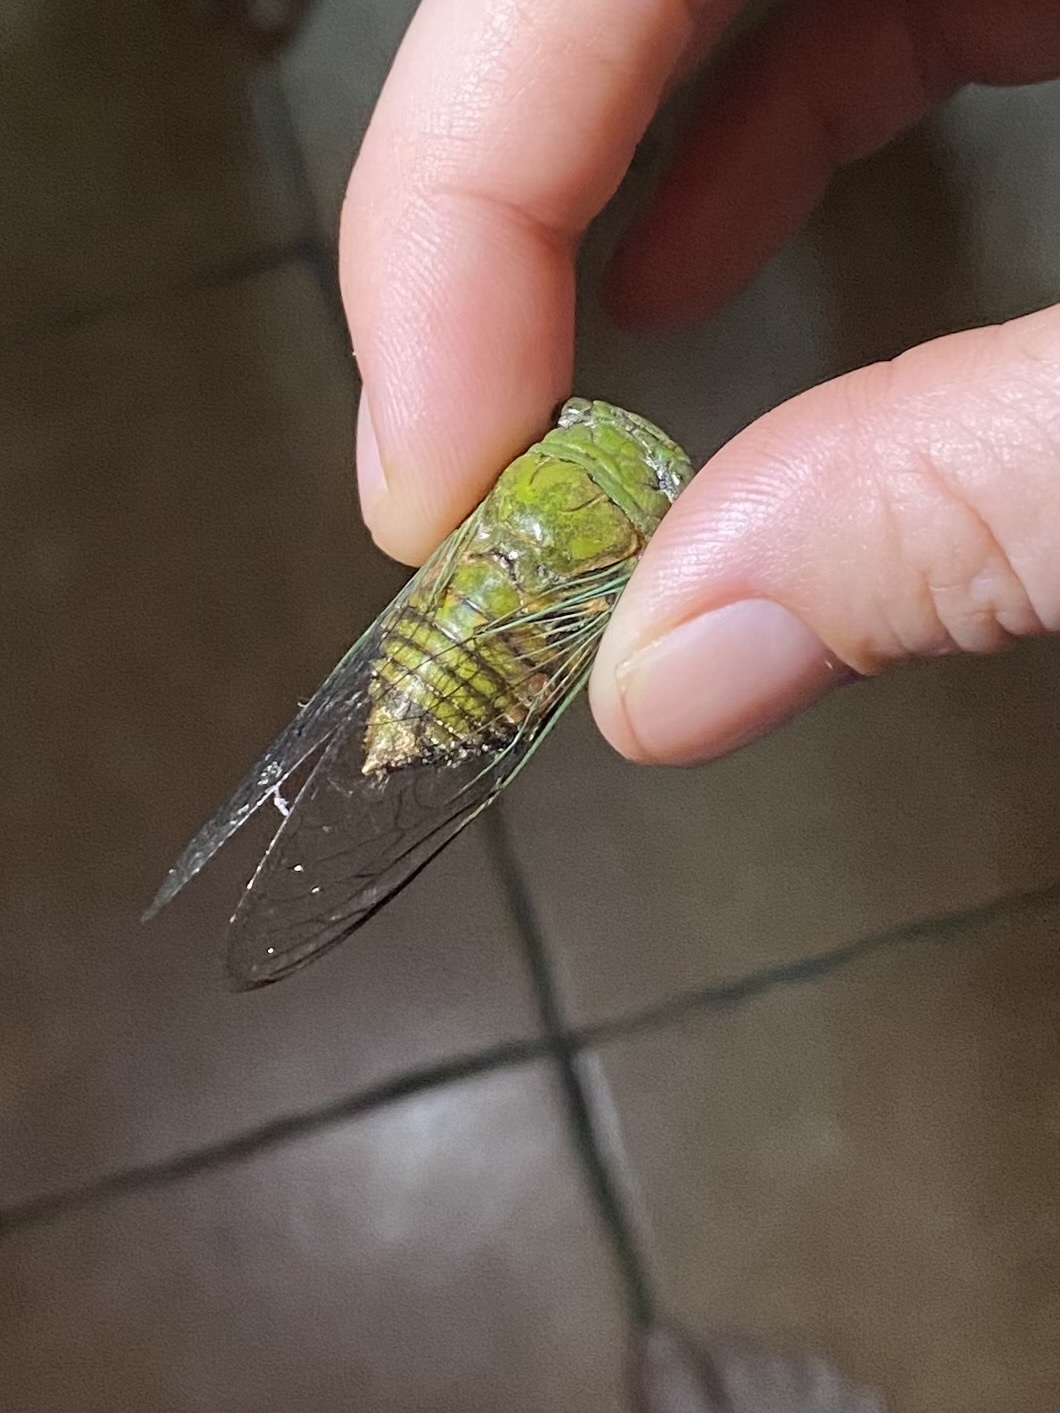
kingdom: Animalia
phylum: Arthropoda
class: Insecta
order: Hemiptera
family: Cicadidae
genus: Dorisiana
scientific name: Dorisiana cachla
